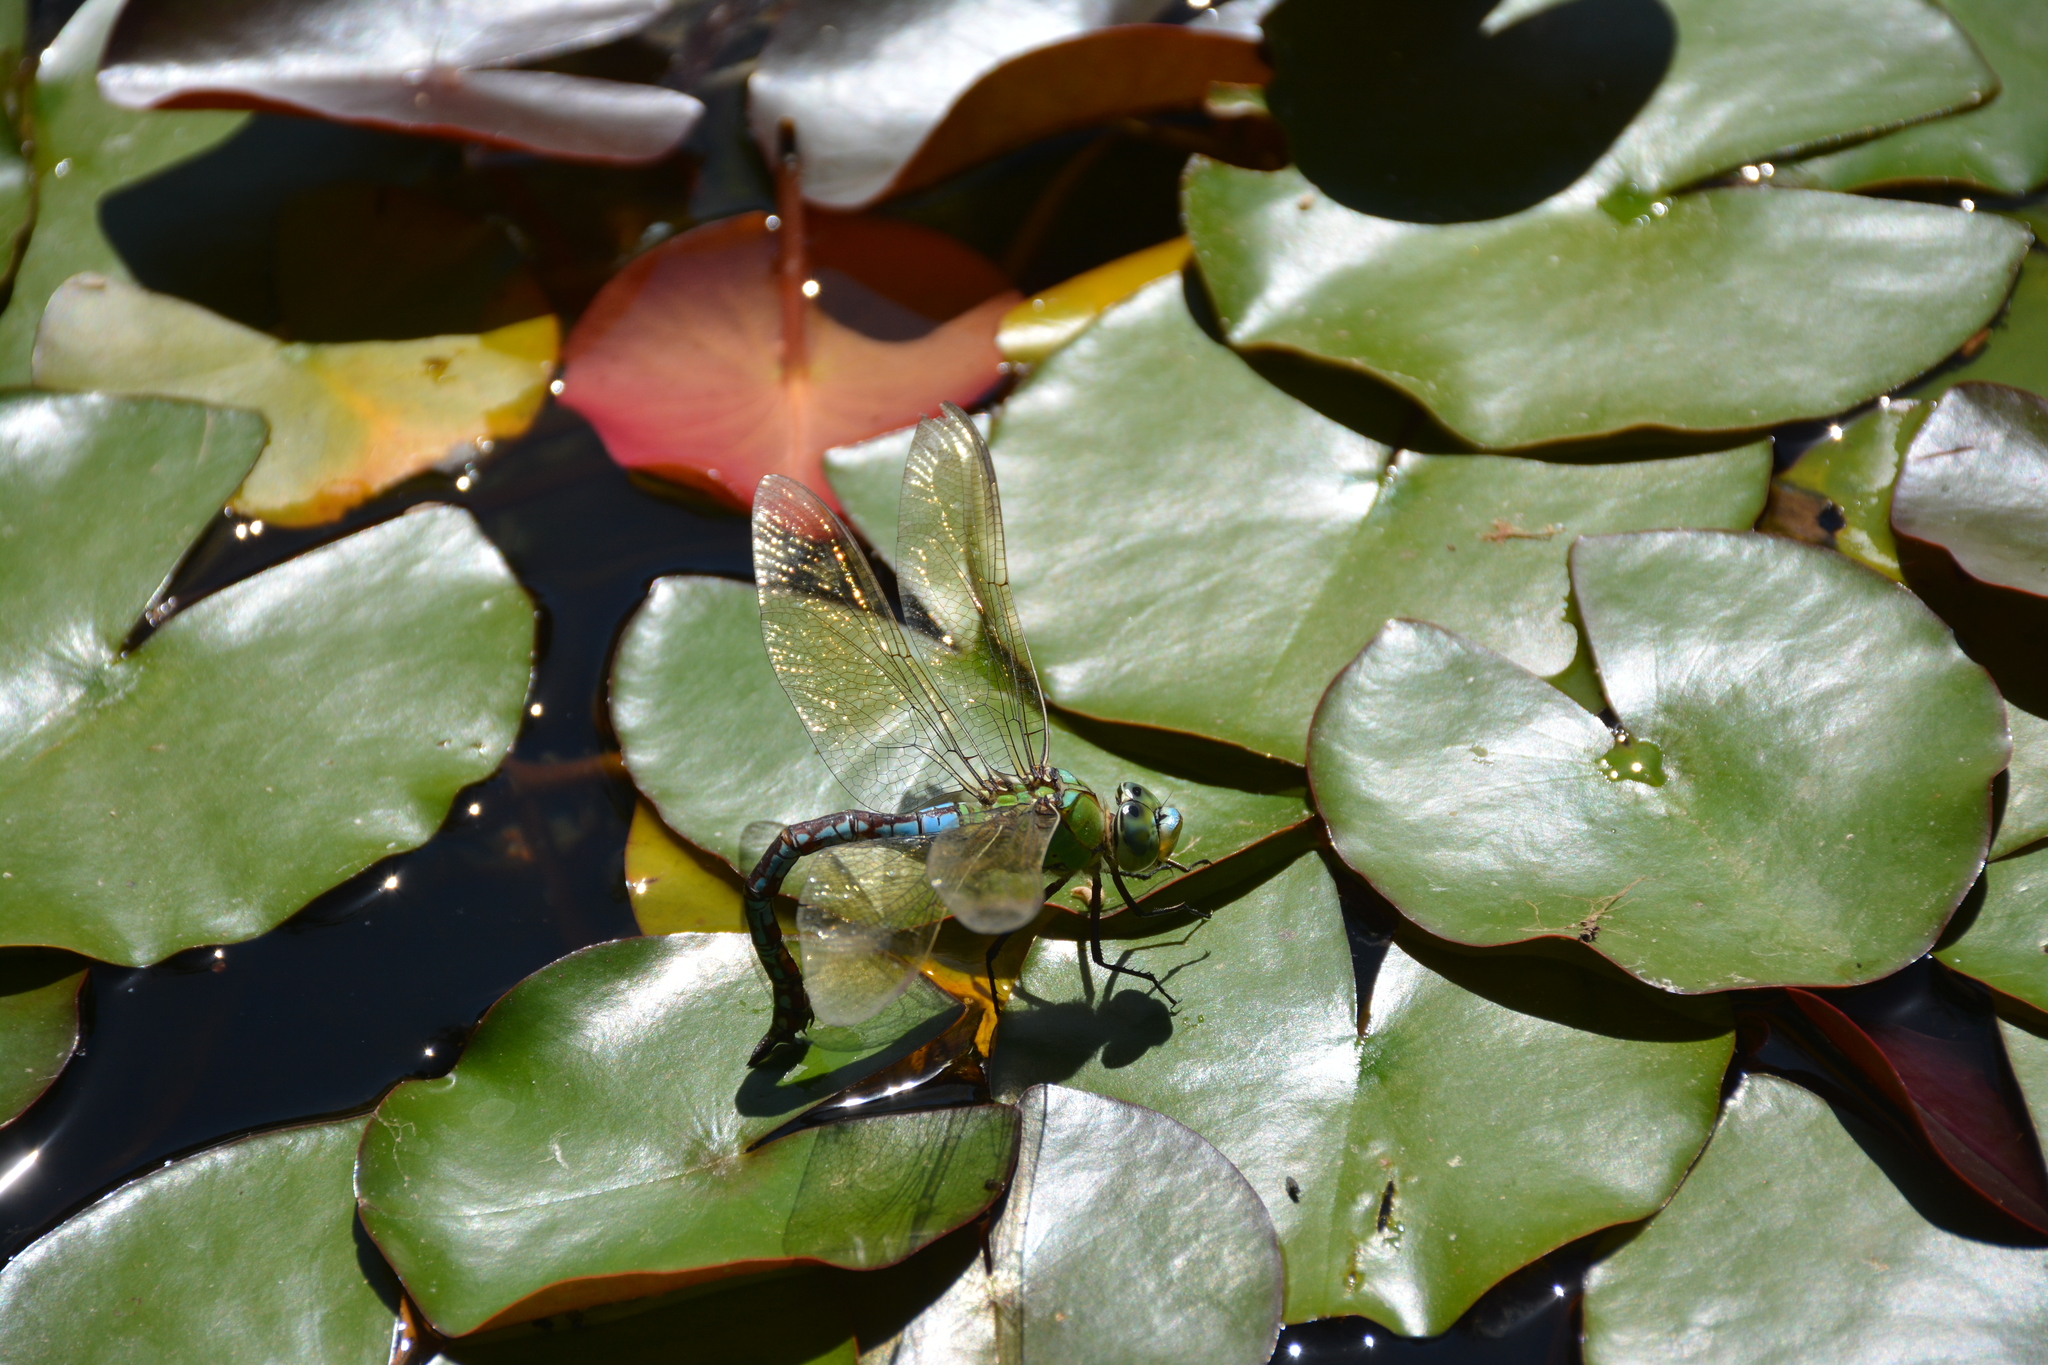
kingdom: Animalia
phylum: Arthropoda
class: Insecta
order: Odonata
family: Aeshnidae
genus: Anax
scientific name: Anax imperator
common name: Emperor dragonfly
